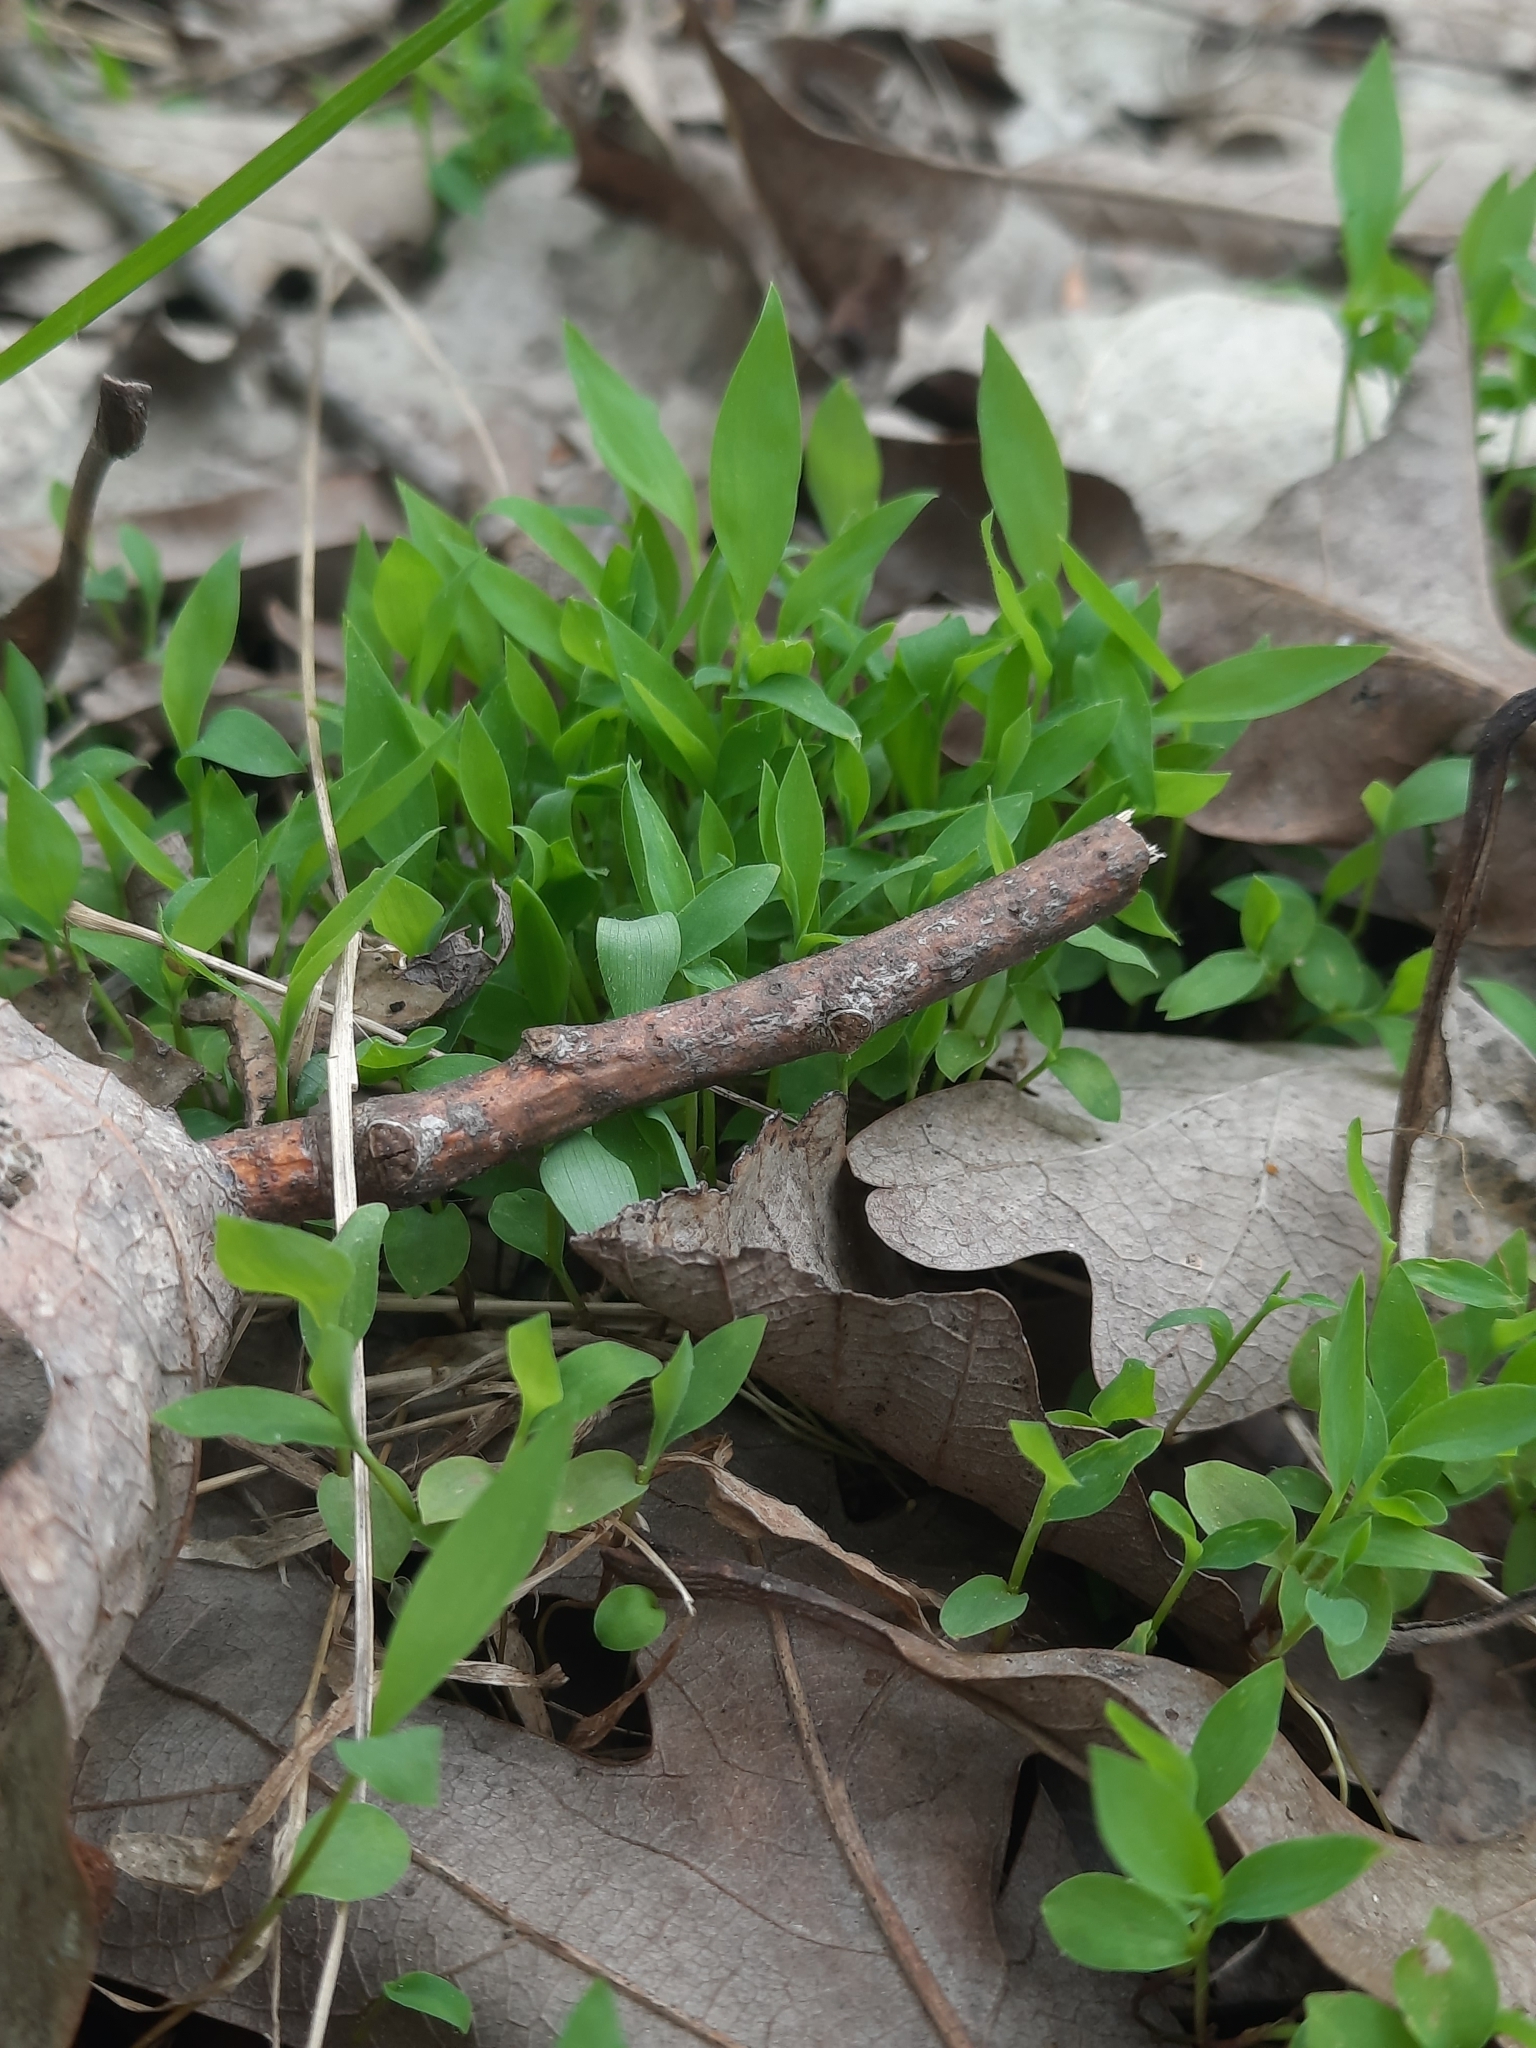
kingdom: Plantae
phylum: Tracheophyta
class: Liliopsida
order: Poales
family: Poaceae
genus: Microstegium
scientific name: Microstegium vimineum
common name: Japanese stiltgrass
